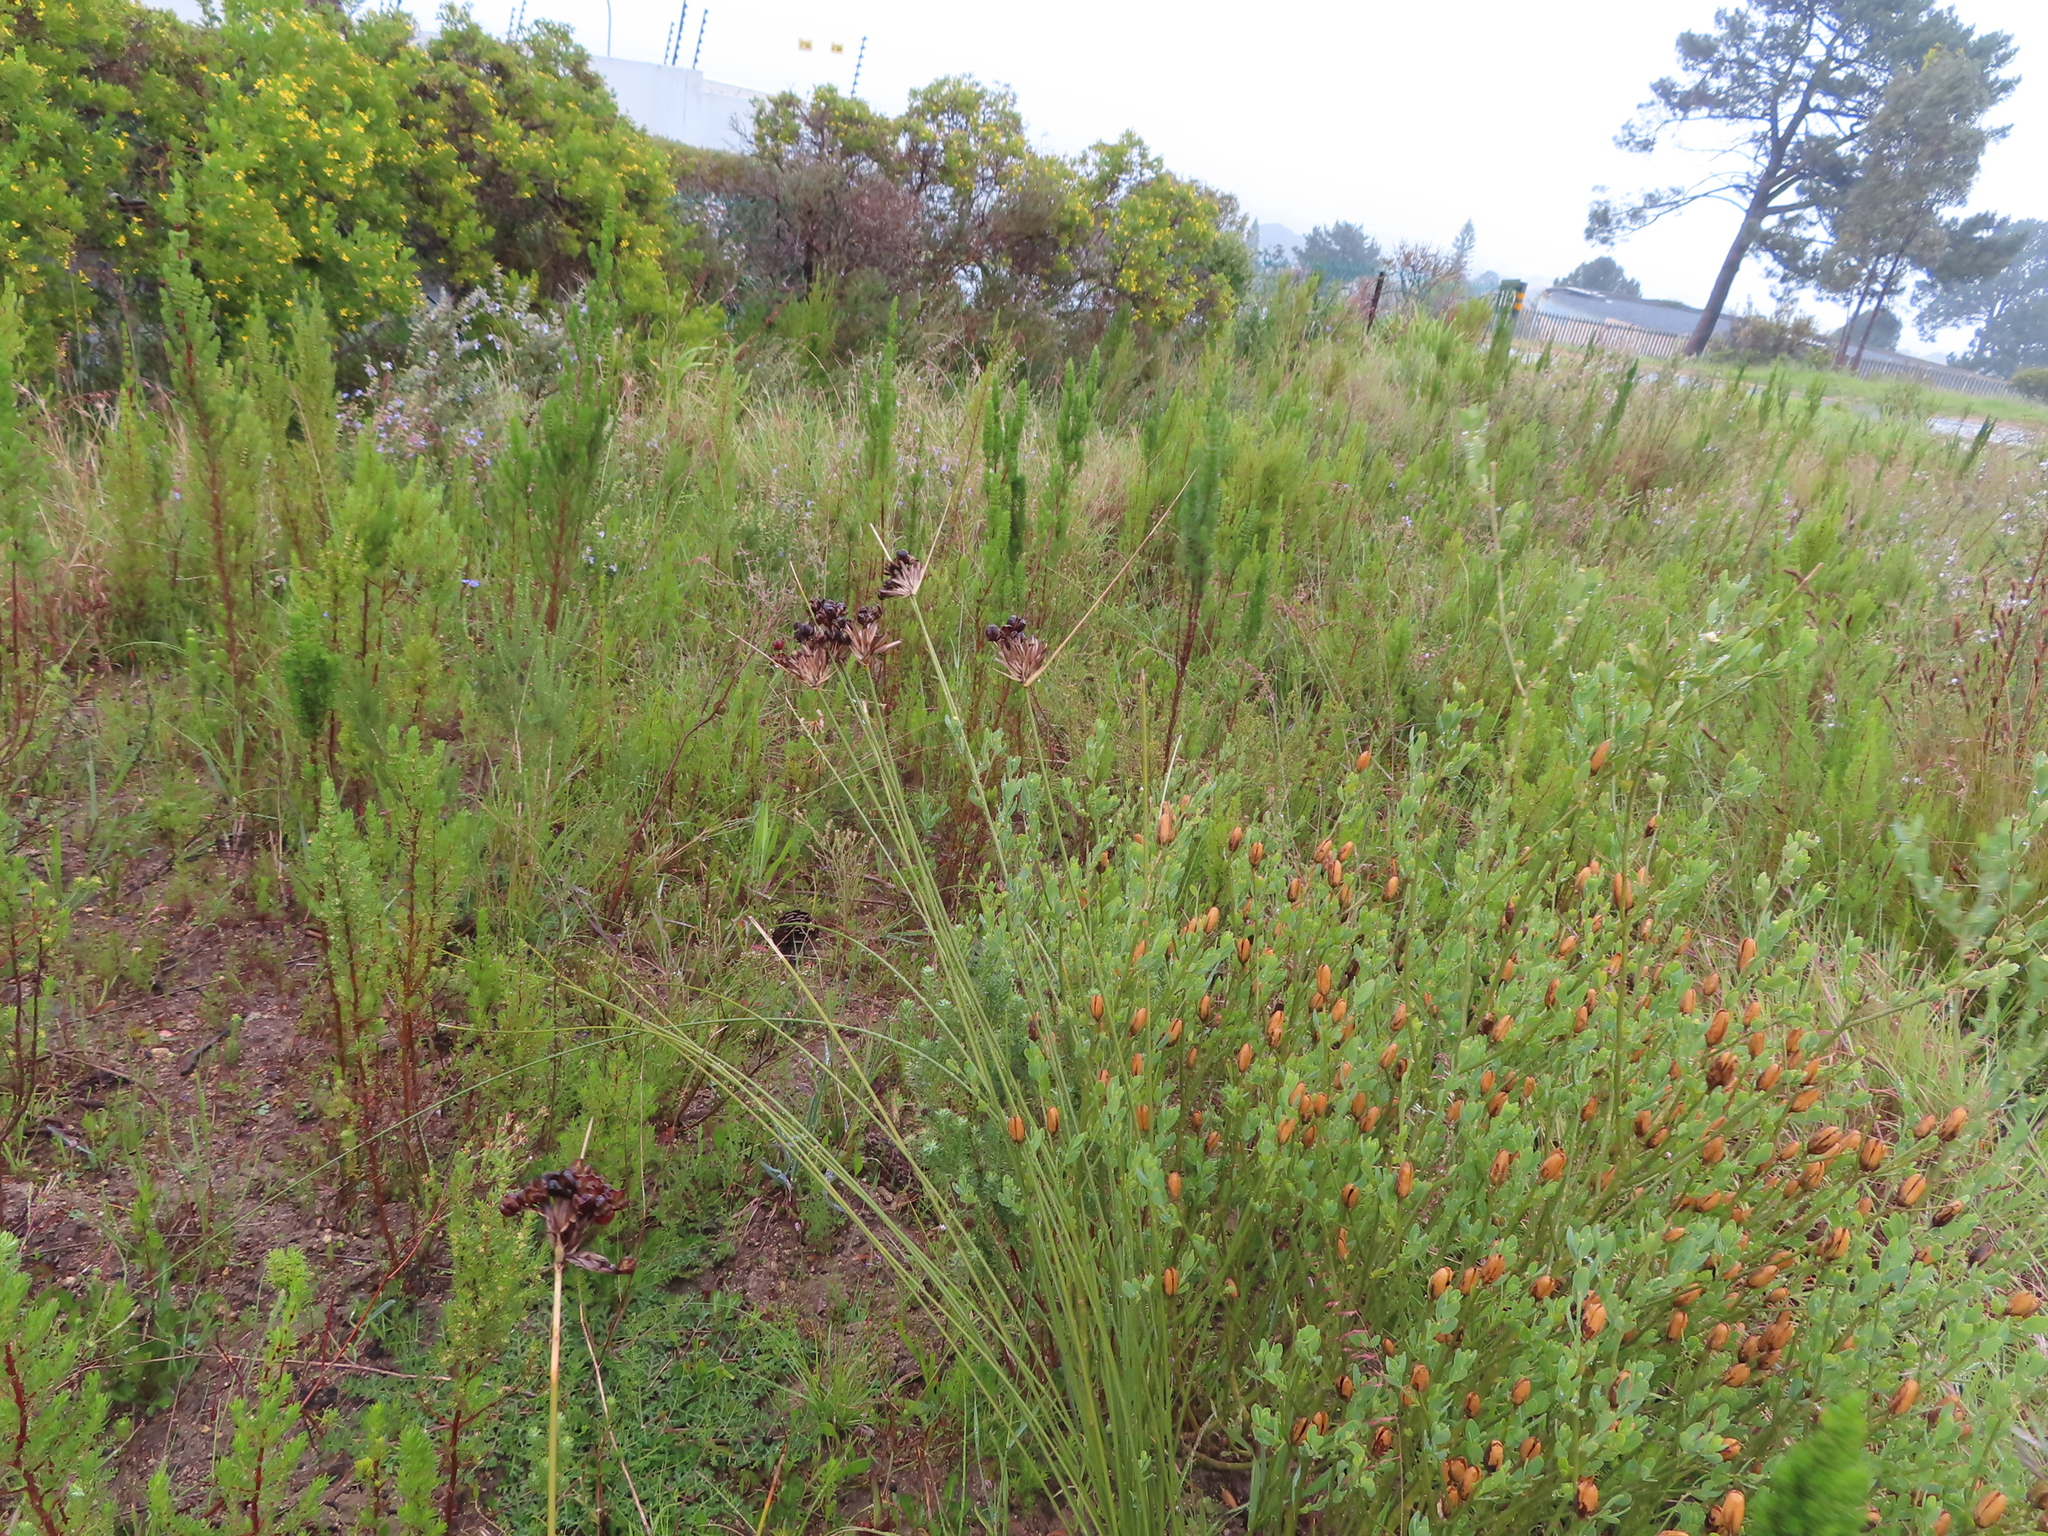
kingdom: Plantae
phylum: Tracheophyta
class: Liliopsida
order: Asparagales
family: Iridaceae
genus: Bobartia
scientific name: Bobartia indica
